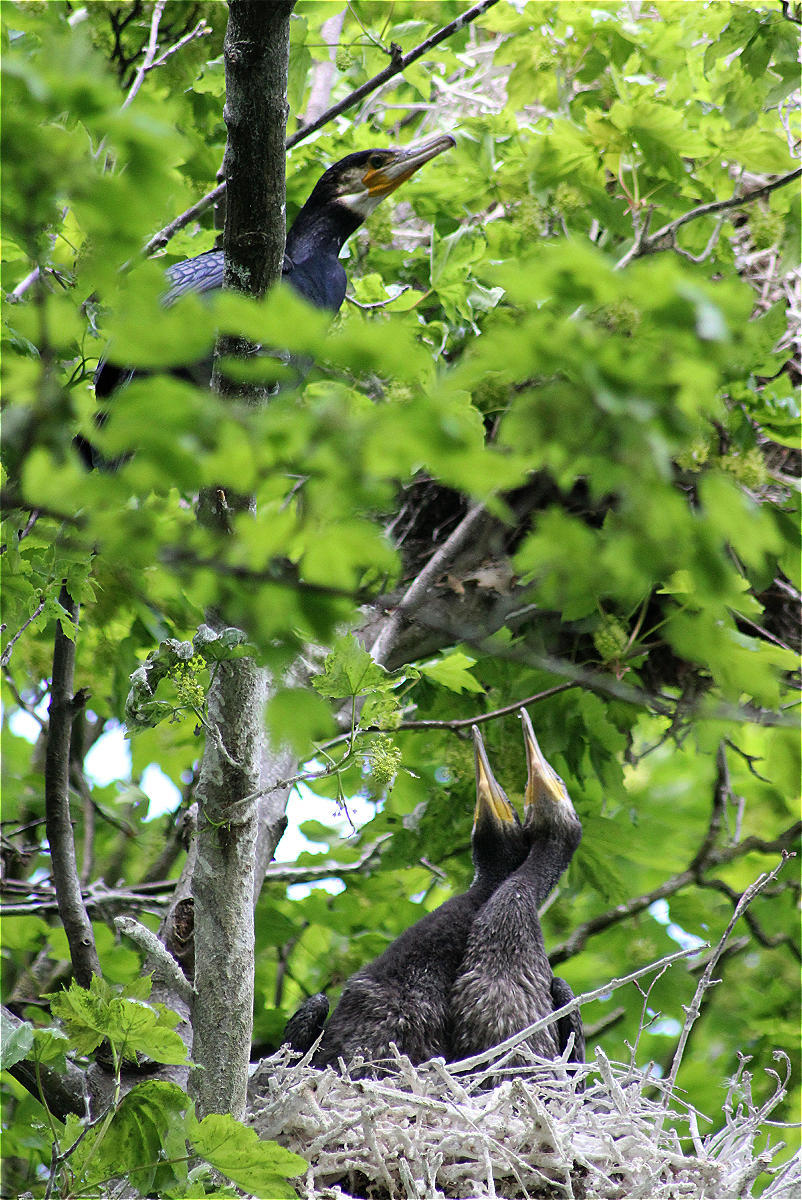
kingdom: Animalia
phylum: Chordata
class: Aves
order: Suliformes
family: Phalacrocoracidae
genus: Phalacrocorax
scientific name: Phalacrocorax carbo
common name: Great cormorant
